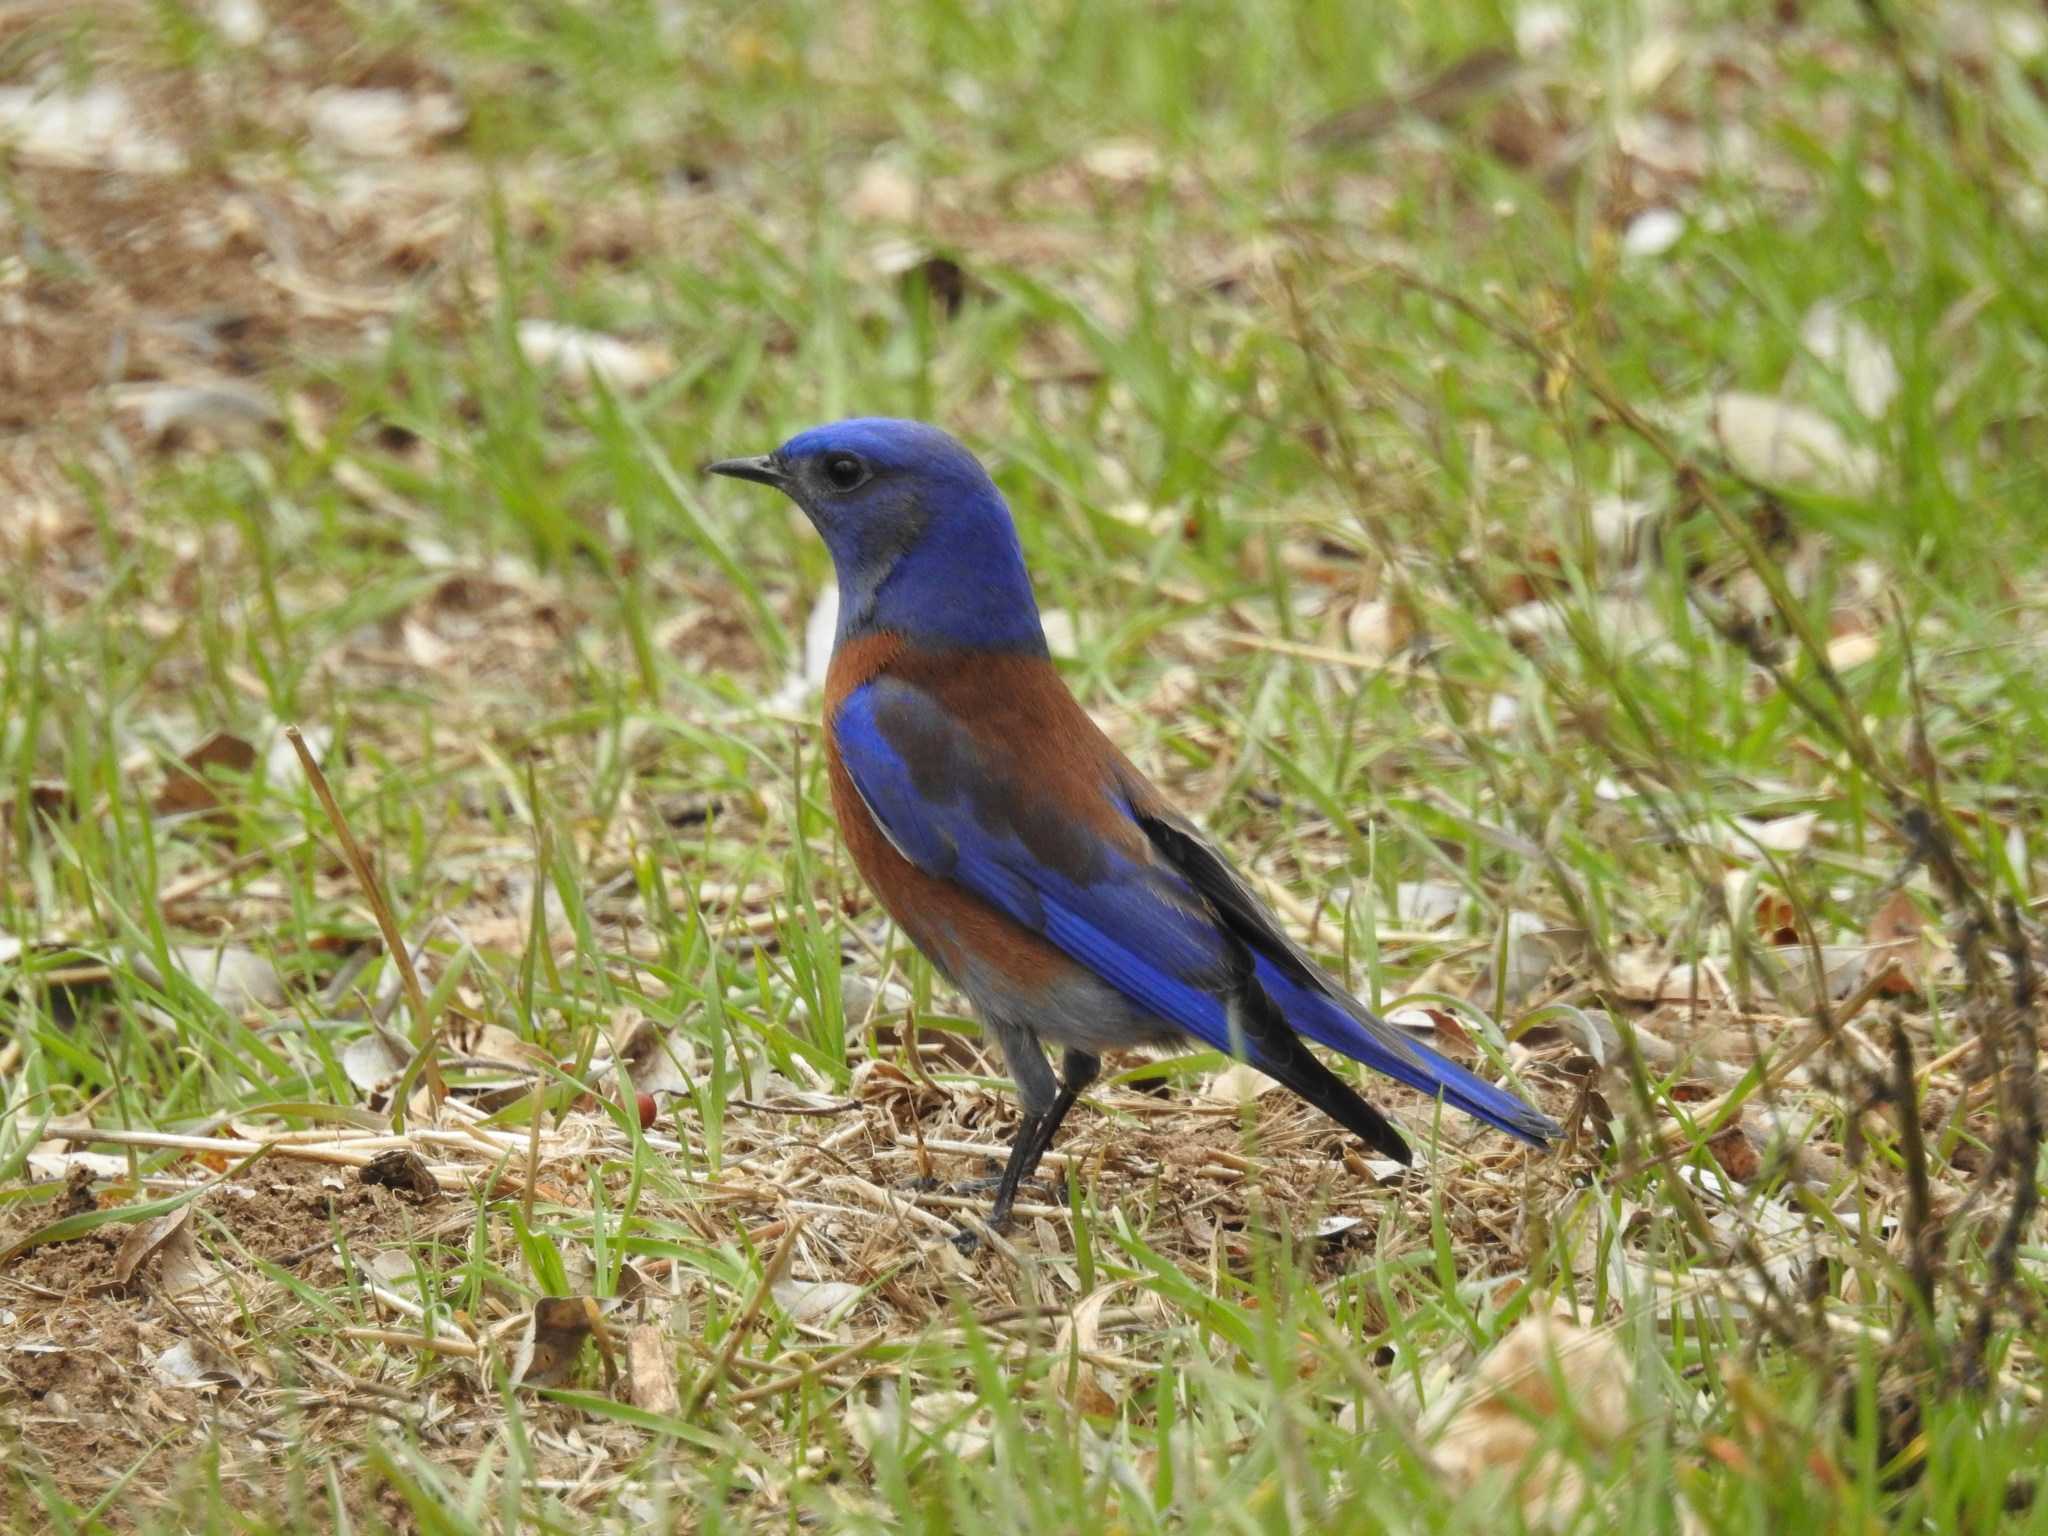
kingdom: Animalia
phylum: Chordata
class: Aves
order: Passeriformes
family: Turdidae
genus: Sialia
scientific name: Sialia mexicana
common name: Western bluebird
